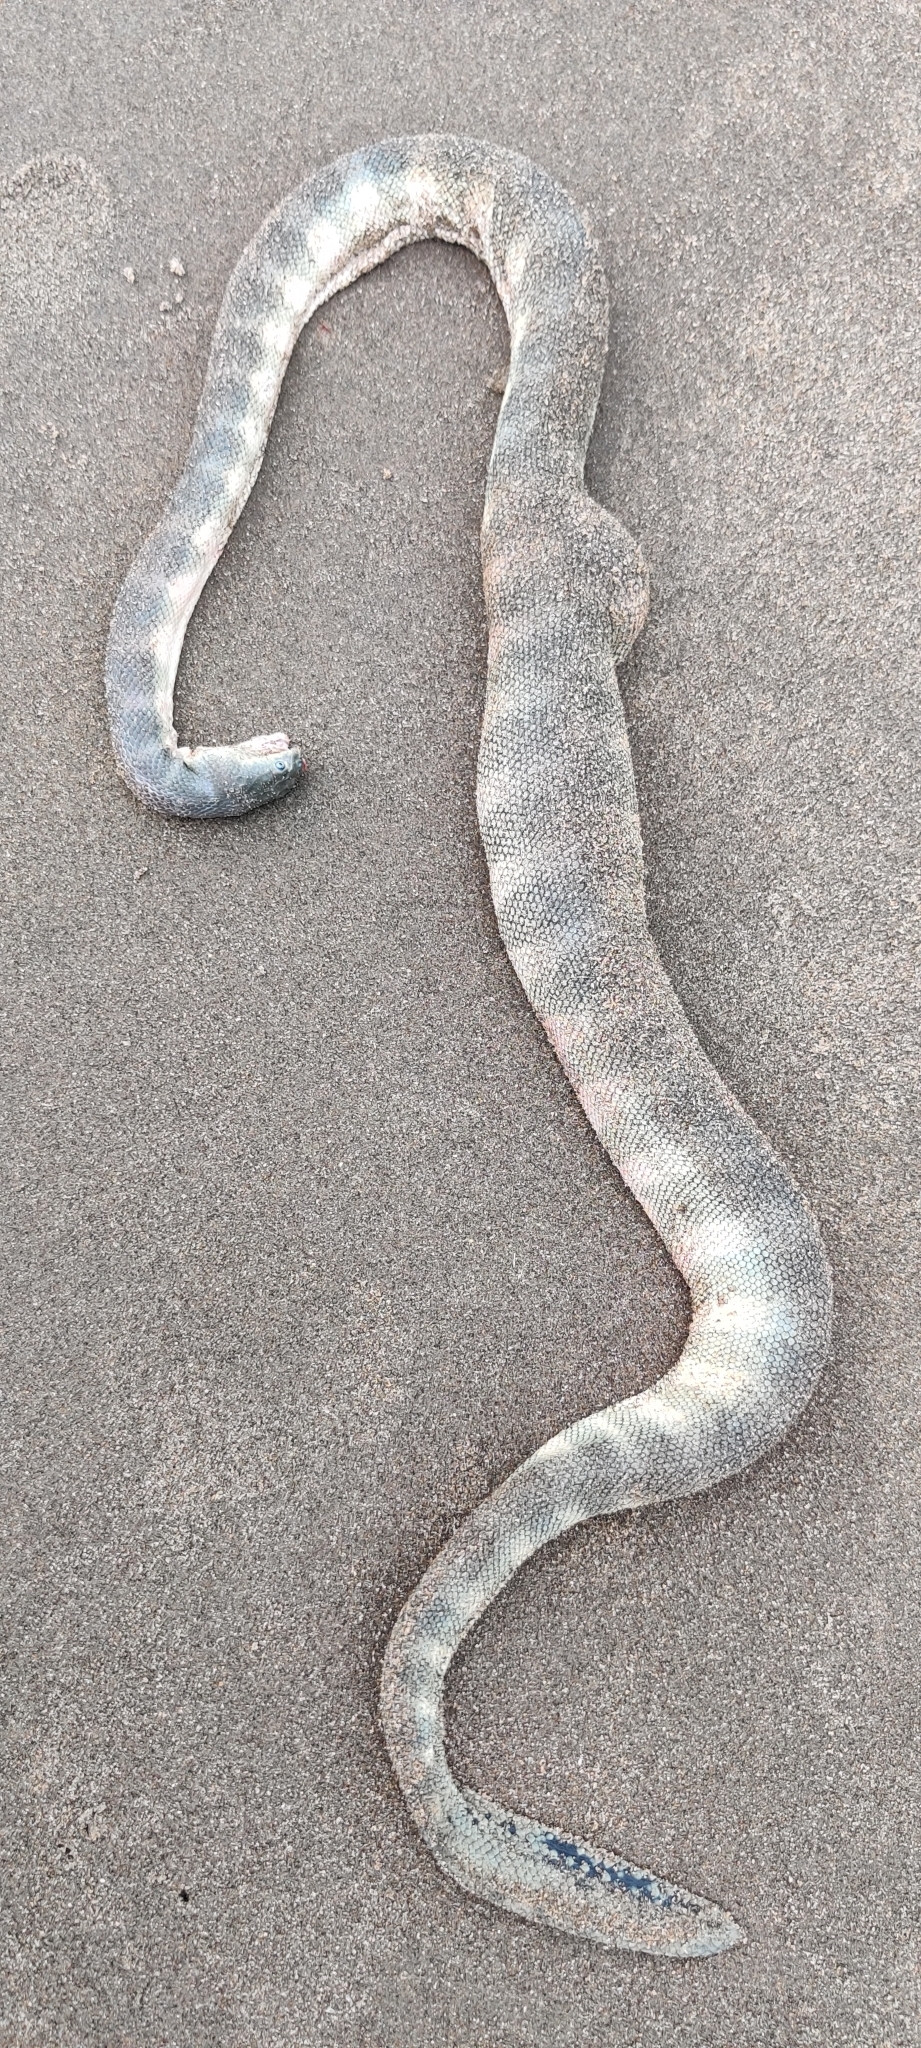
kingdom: Animalia
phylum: Chordata
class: Squamata
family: Elapidae
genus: Hydrophis
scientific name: Hydrophis schistosus
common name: Hook-nosed sea snake
